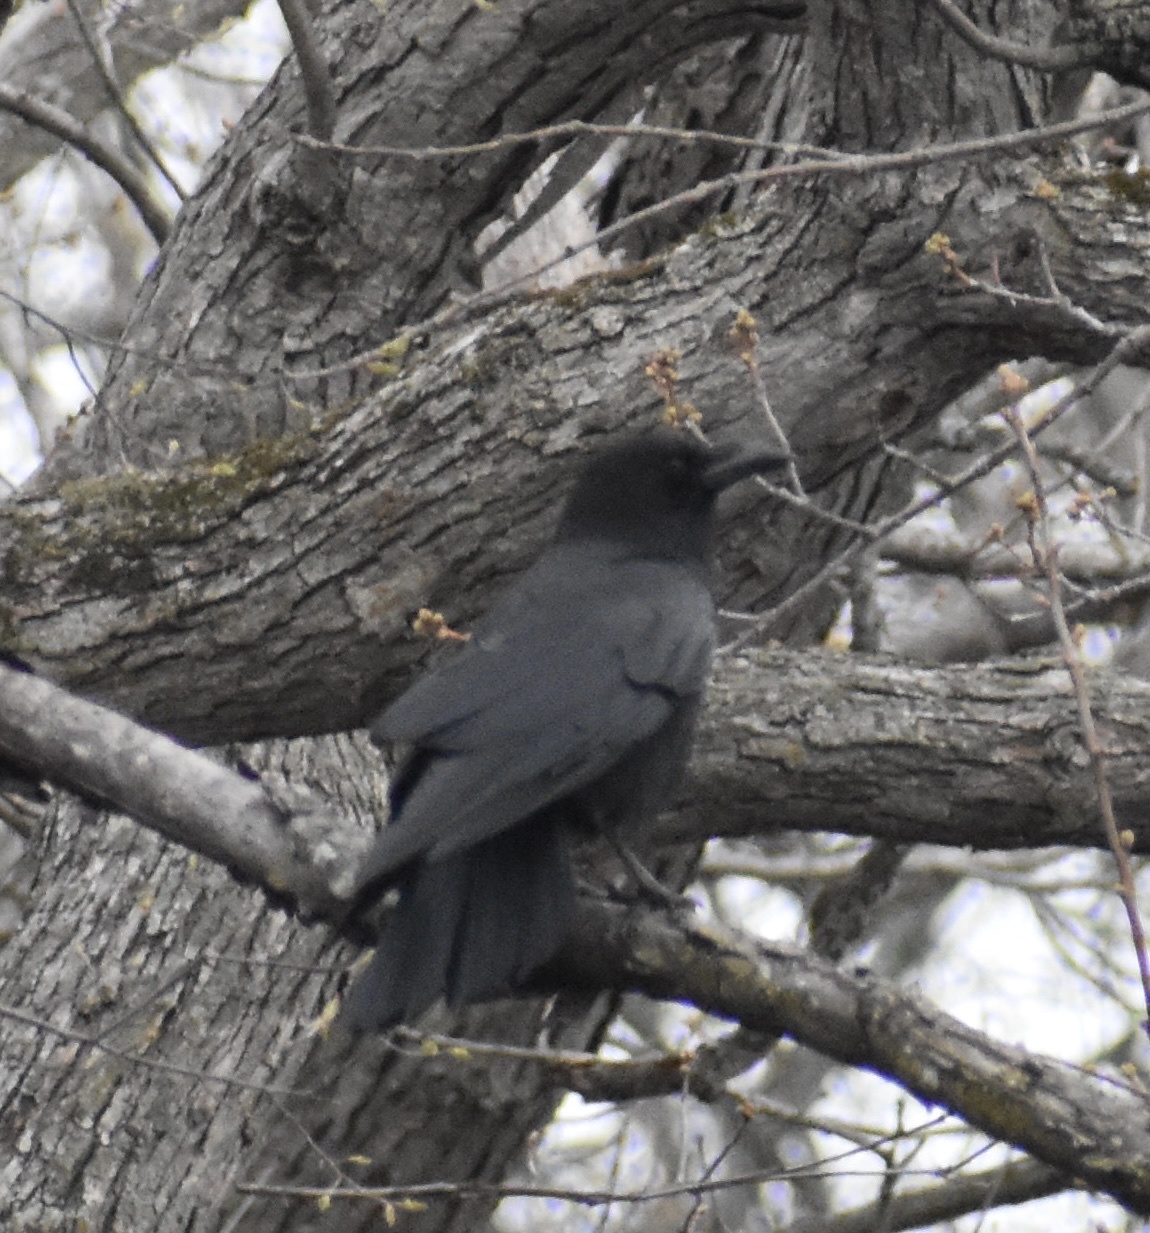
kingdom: Animalia
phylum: Chordata
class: Aves
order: Passeriformes
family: Corvidae
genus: Corvus
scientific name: Corvus brachyrhynchos
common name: American crow
